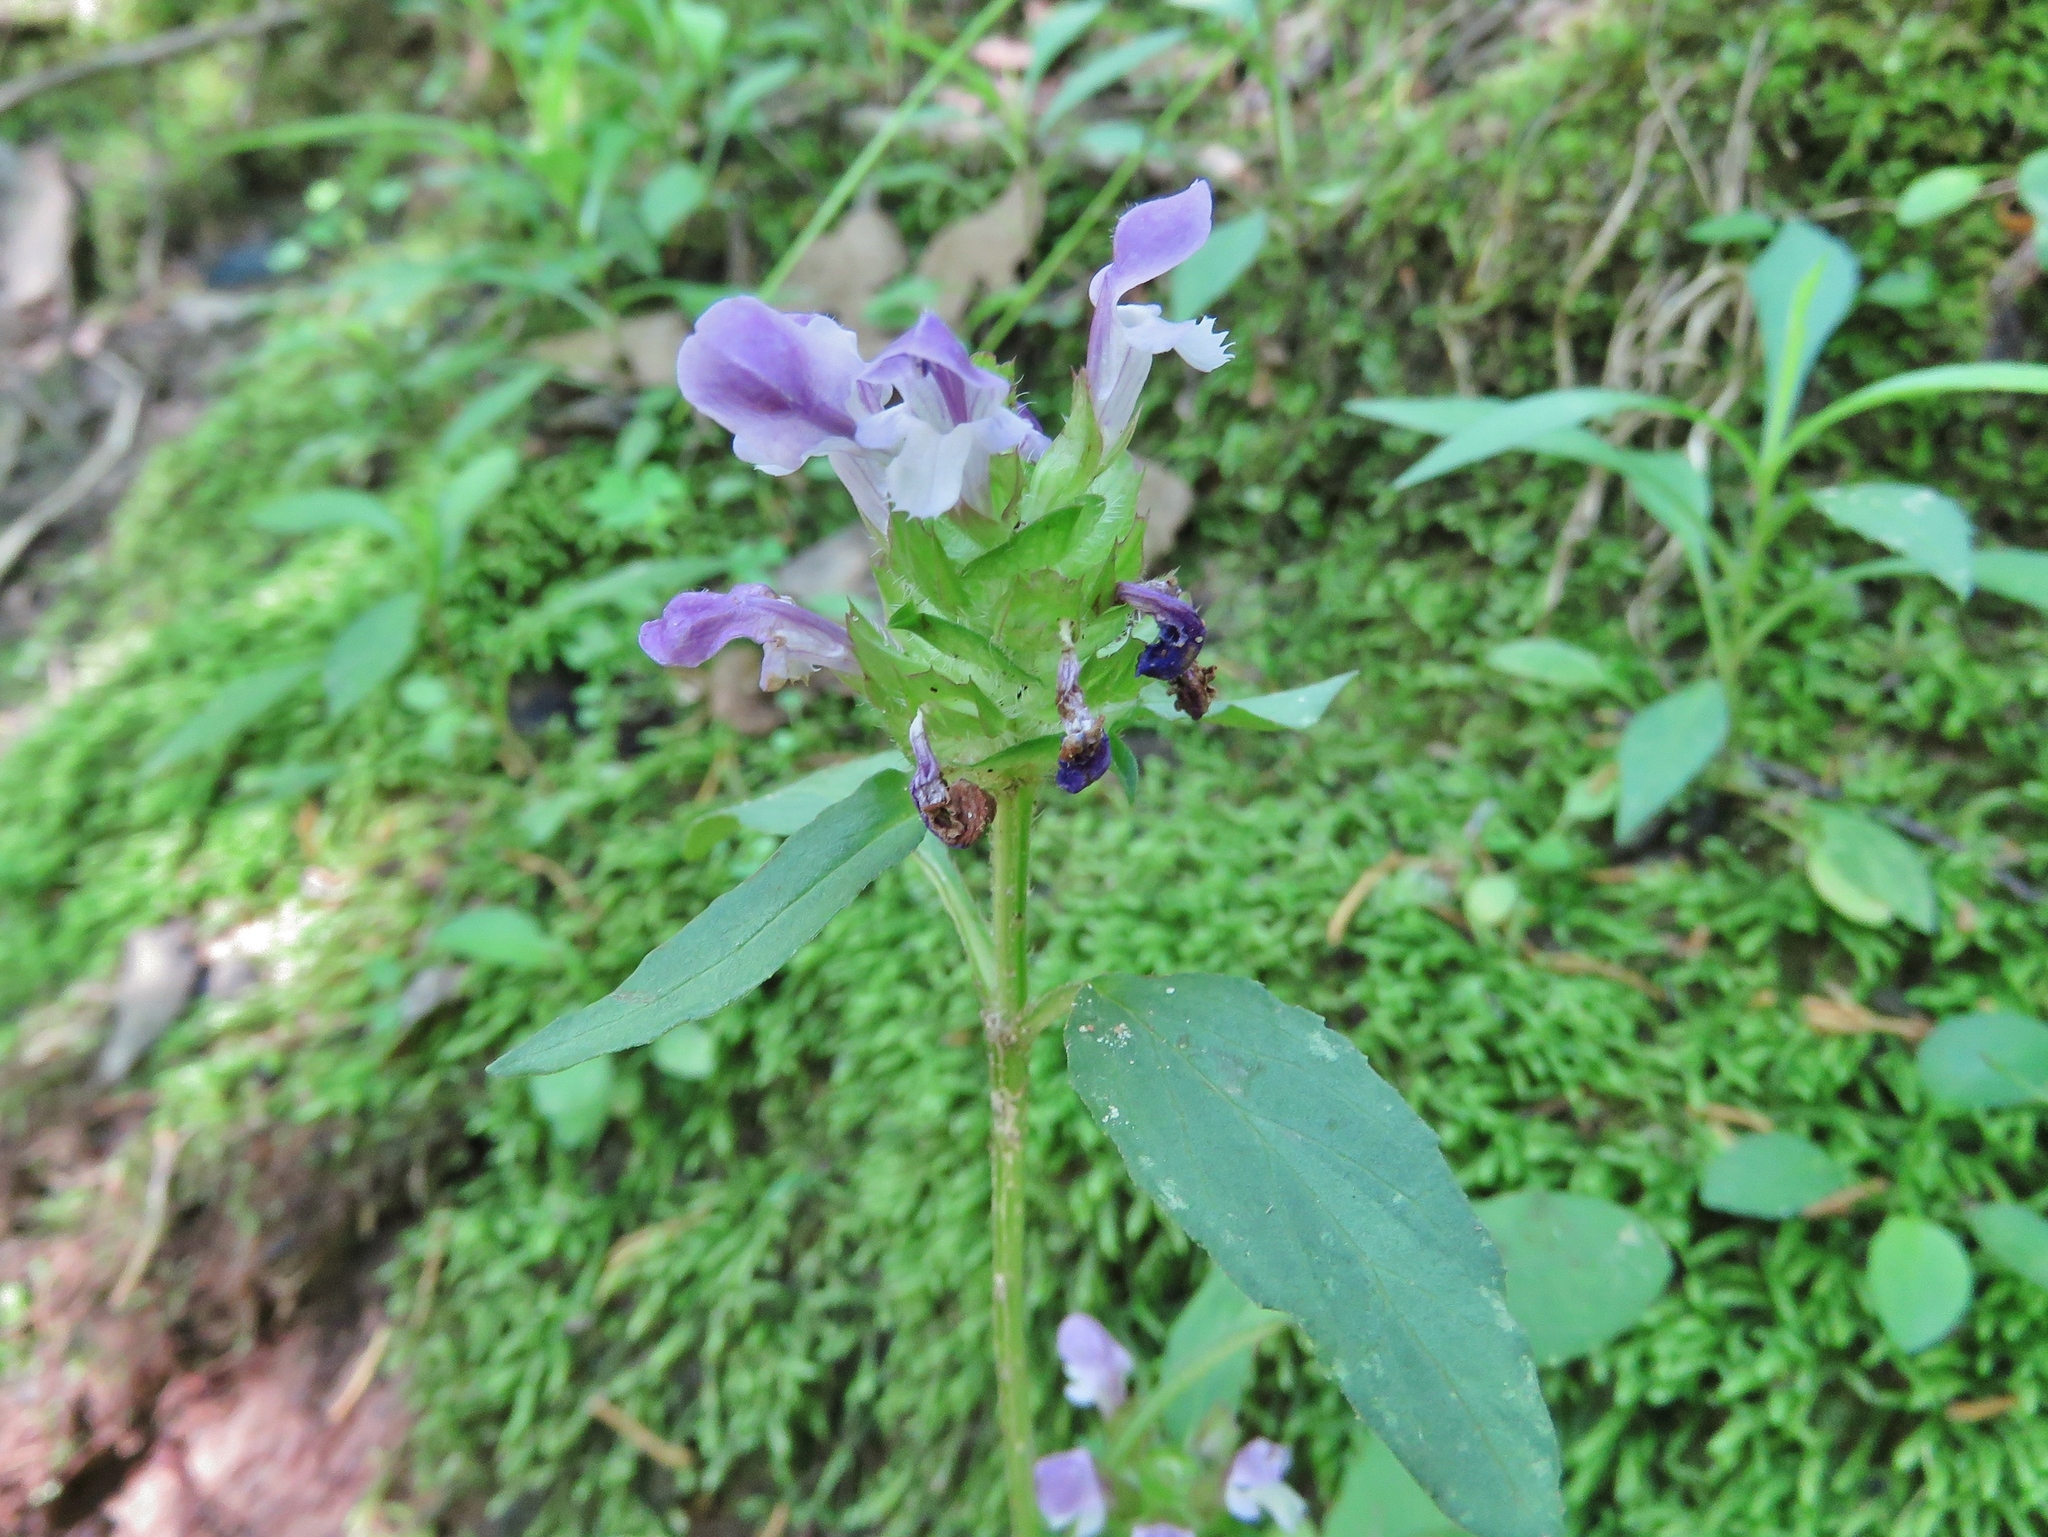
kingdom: Plantae
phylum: Tracheophyta
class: Magnoliopsida
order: Lamiales
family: Lamiaceae
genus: Prunella
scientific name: Prunella vulgaris
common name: Heal-all
